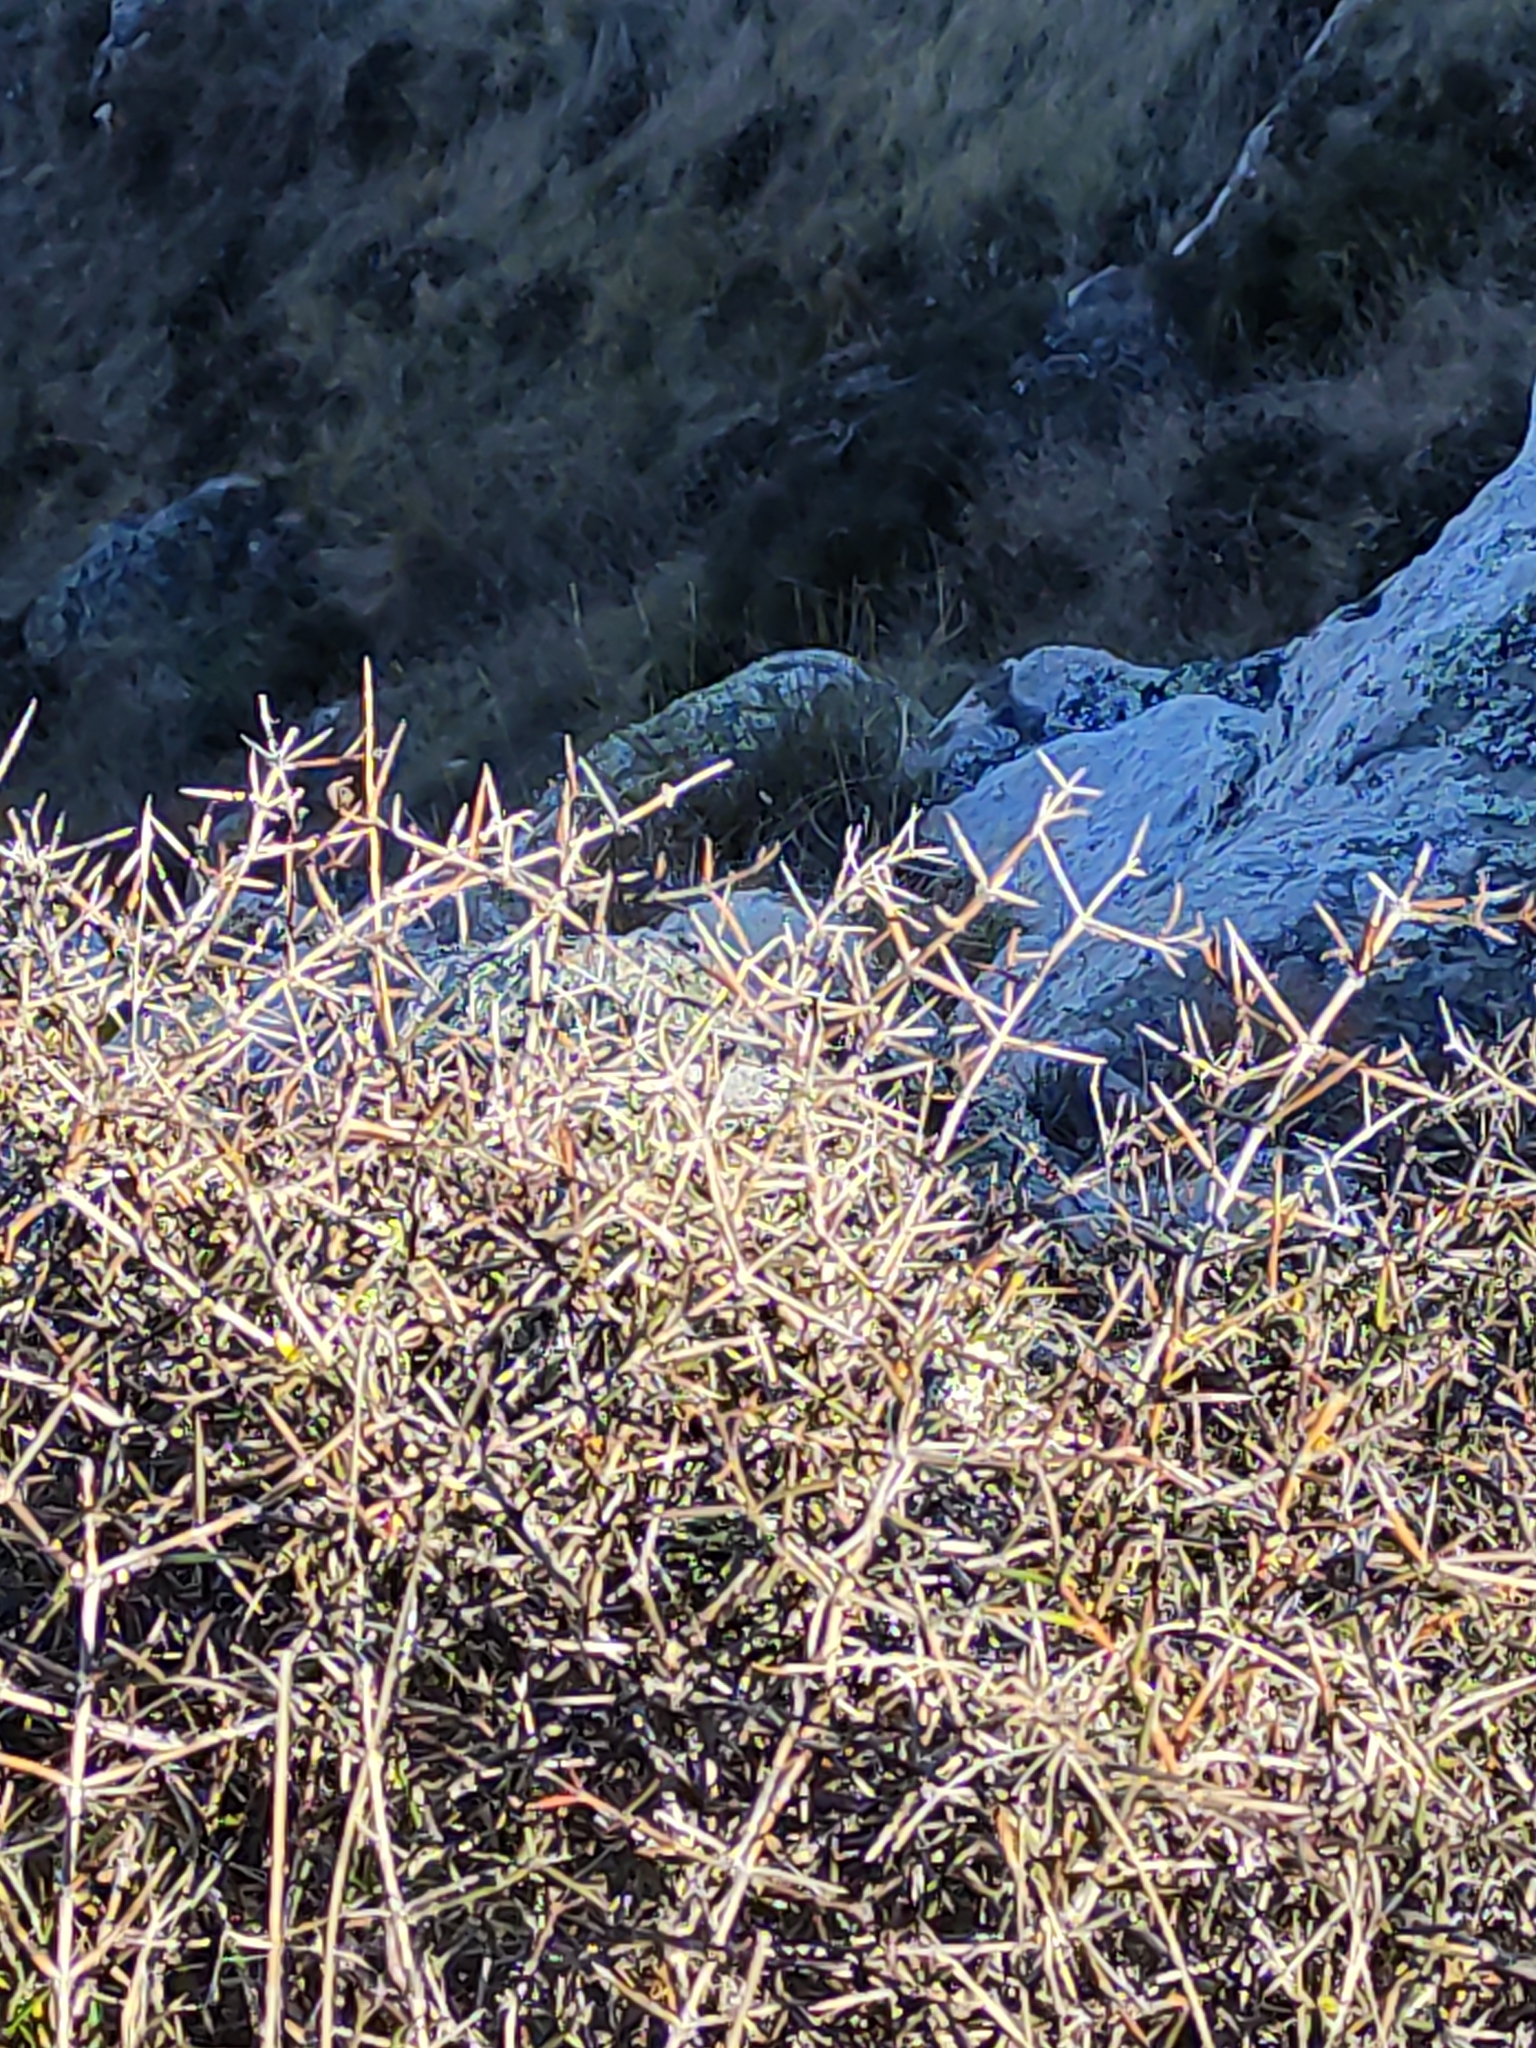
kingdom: Plantae
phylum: Tracheophyta
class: Magnoliopsida
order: Rosales
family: Rhamnaceae
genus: Discaria
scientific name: Discaria toumatou
